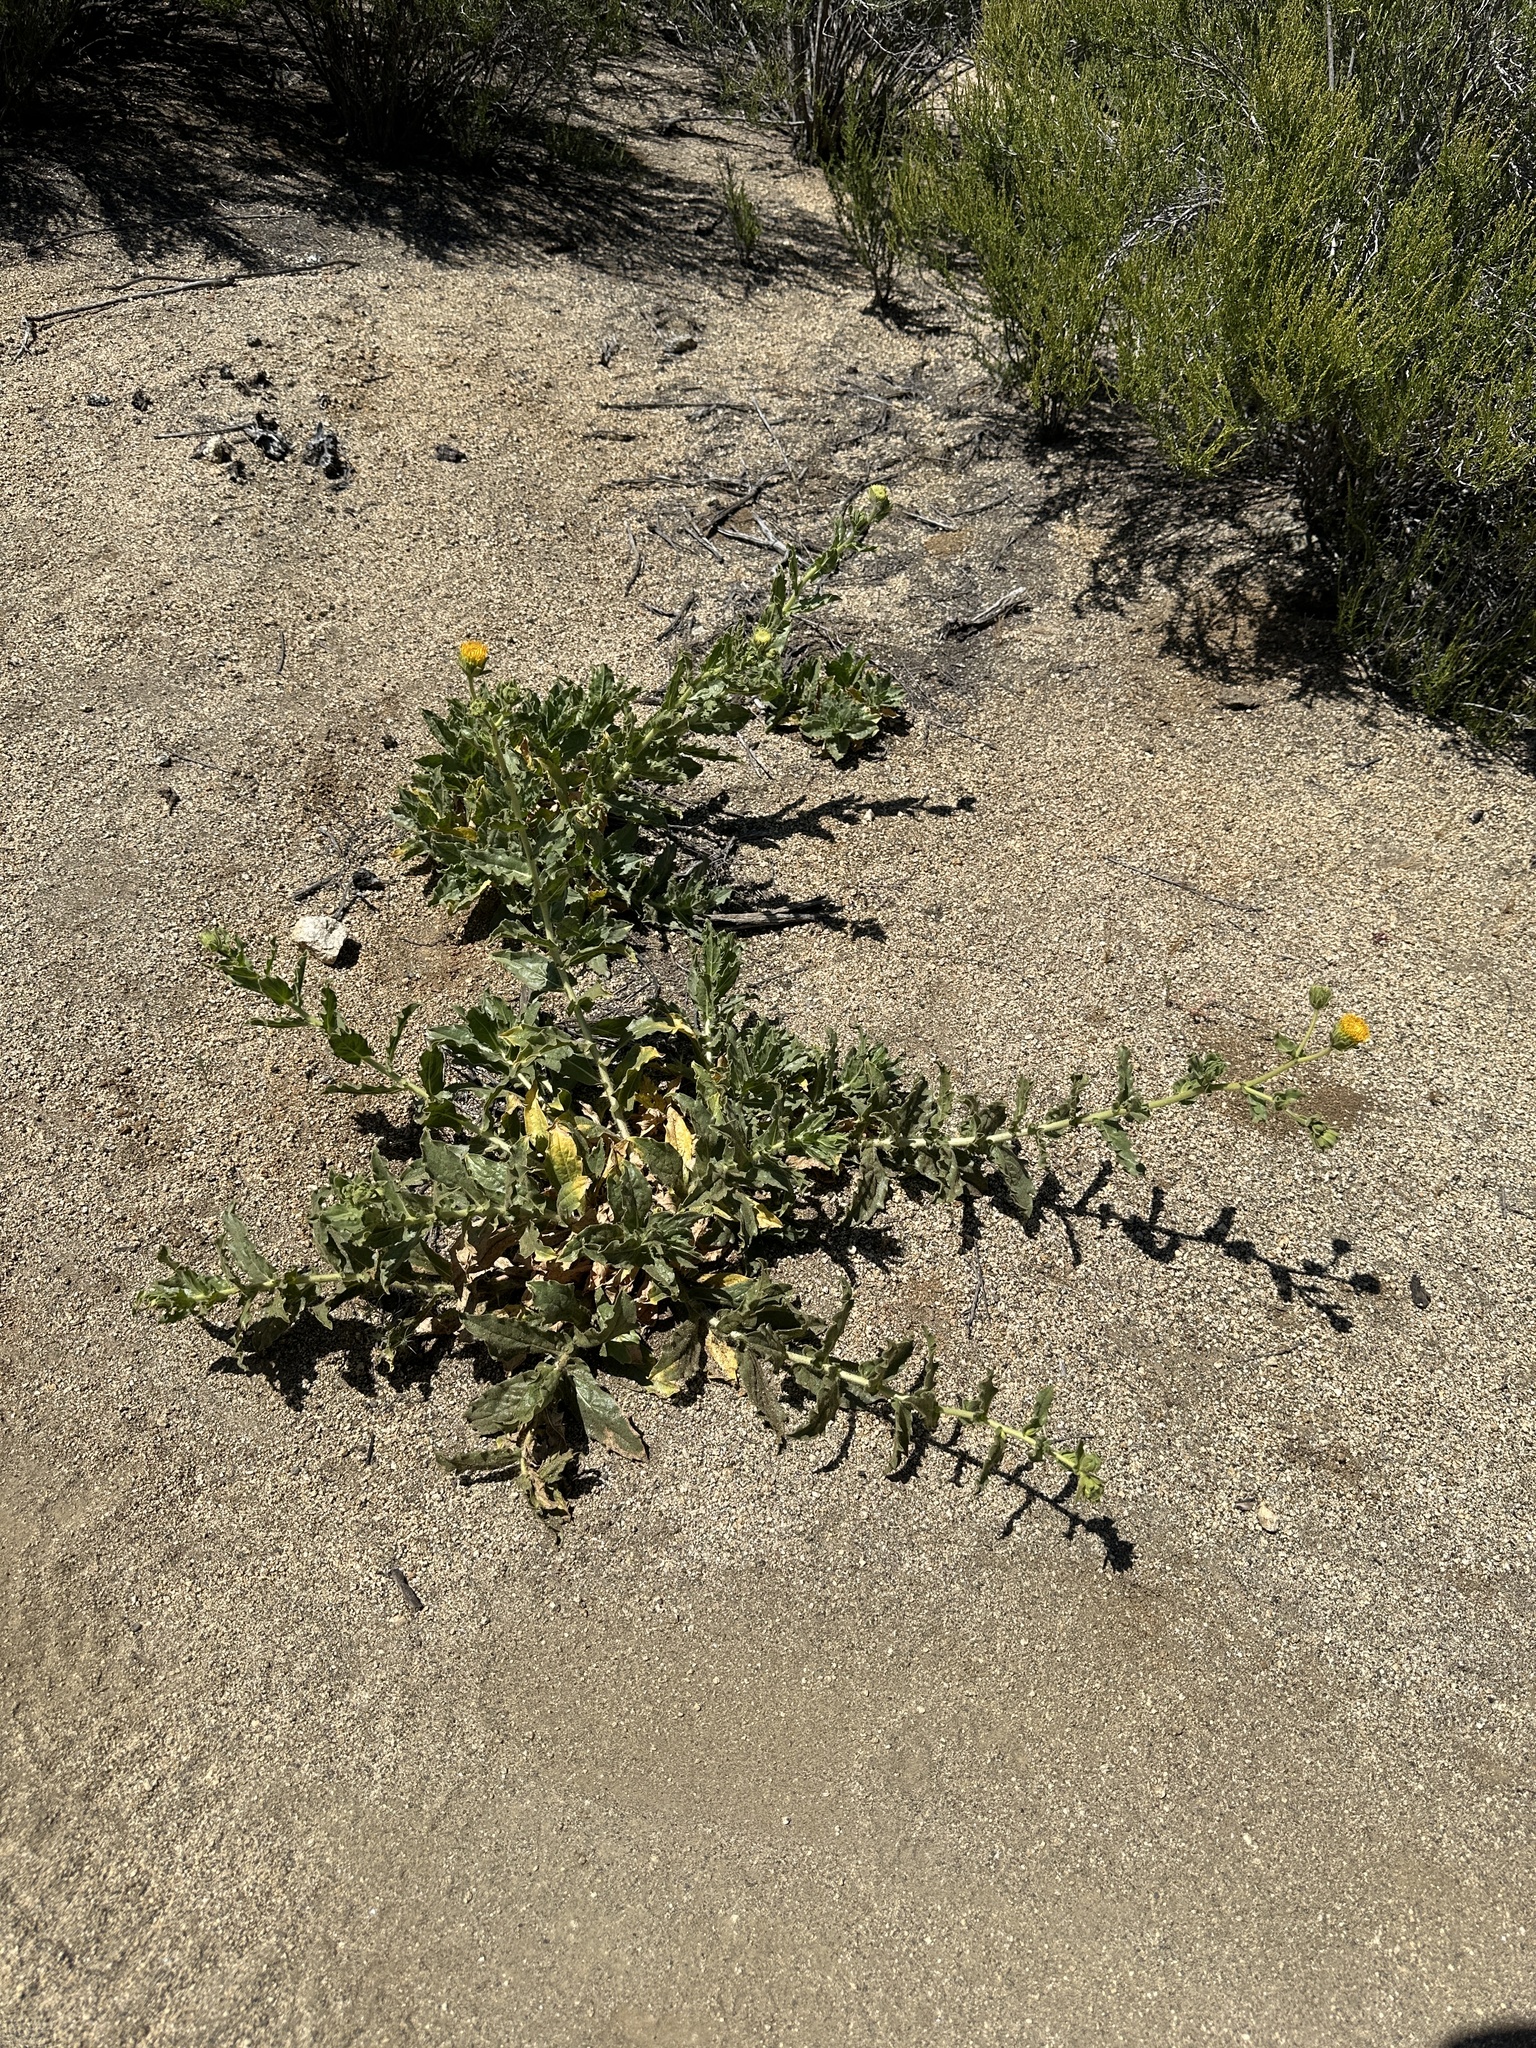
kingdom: Plantae
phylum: Tracheophyta
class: Magnoliopsida
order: Asterales
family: Asteraceae
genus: Geraea
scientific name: Geraea viscida
